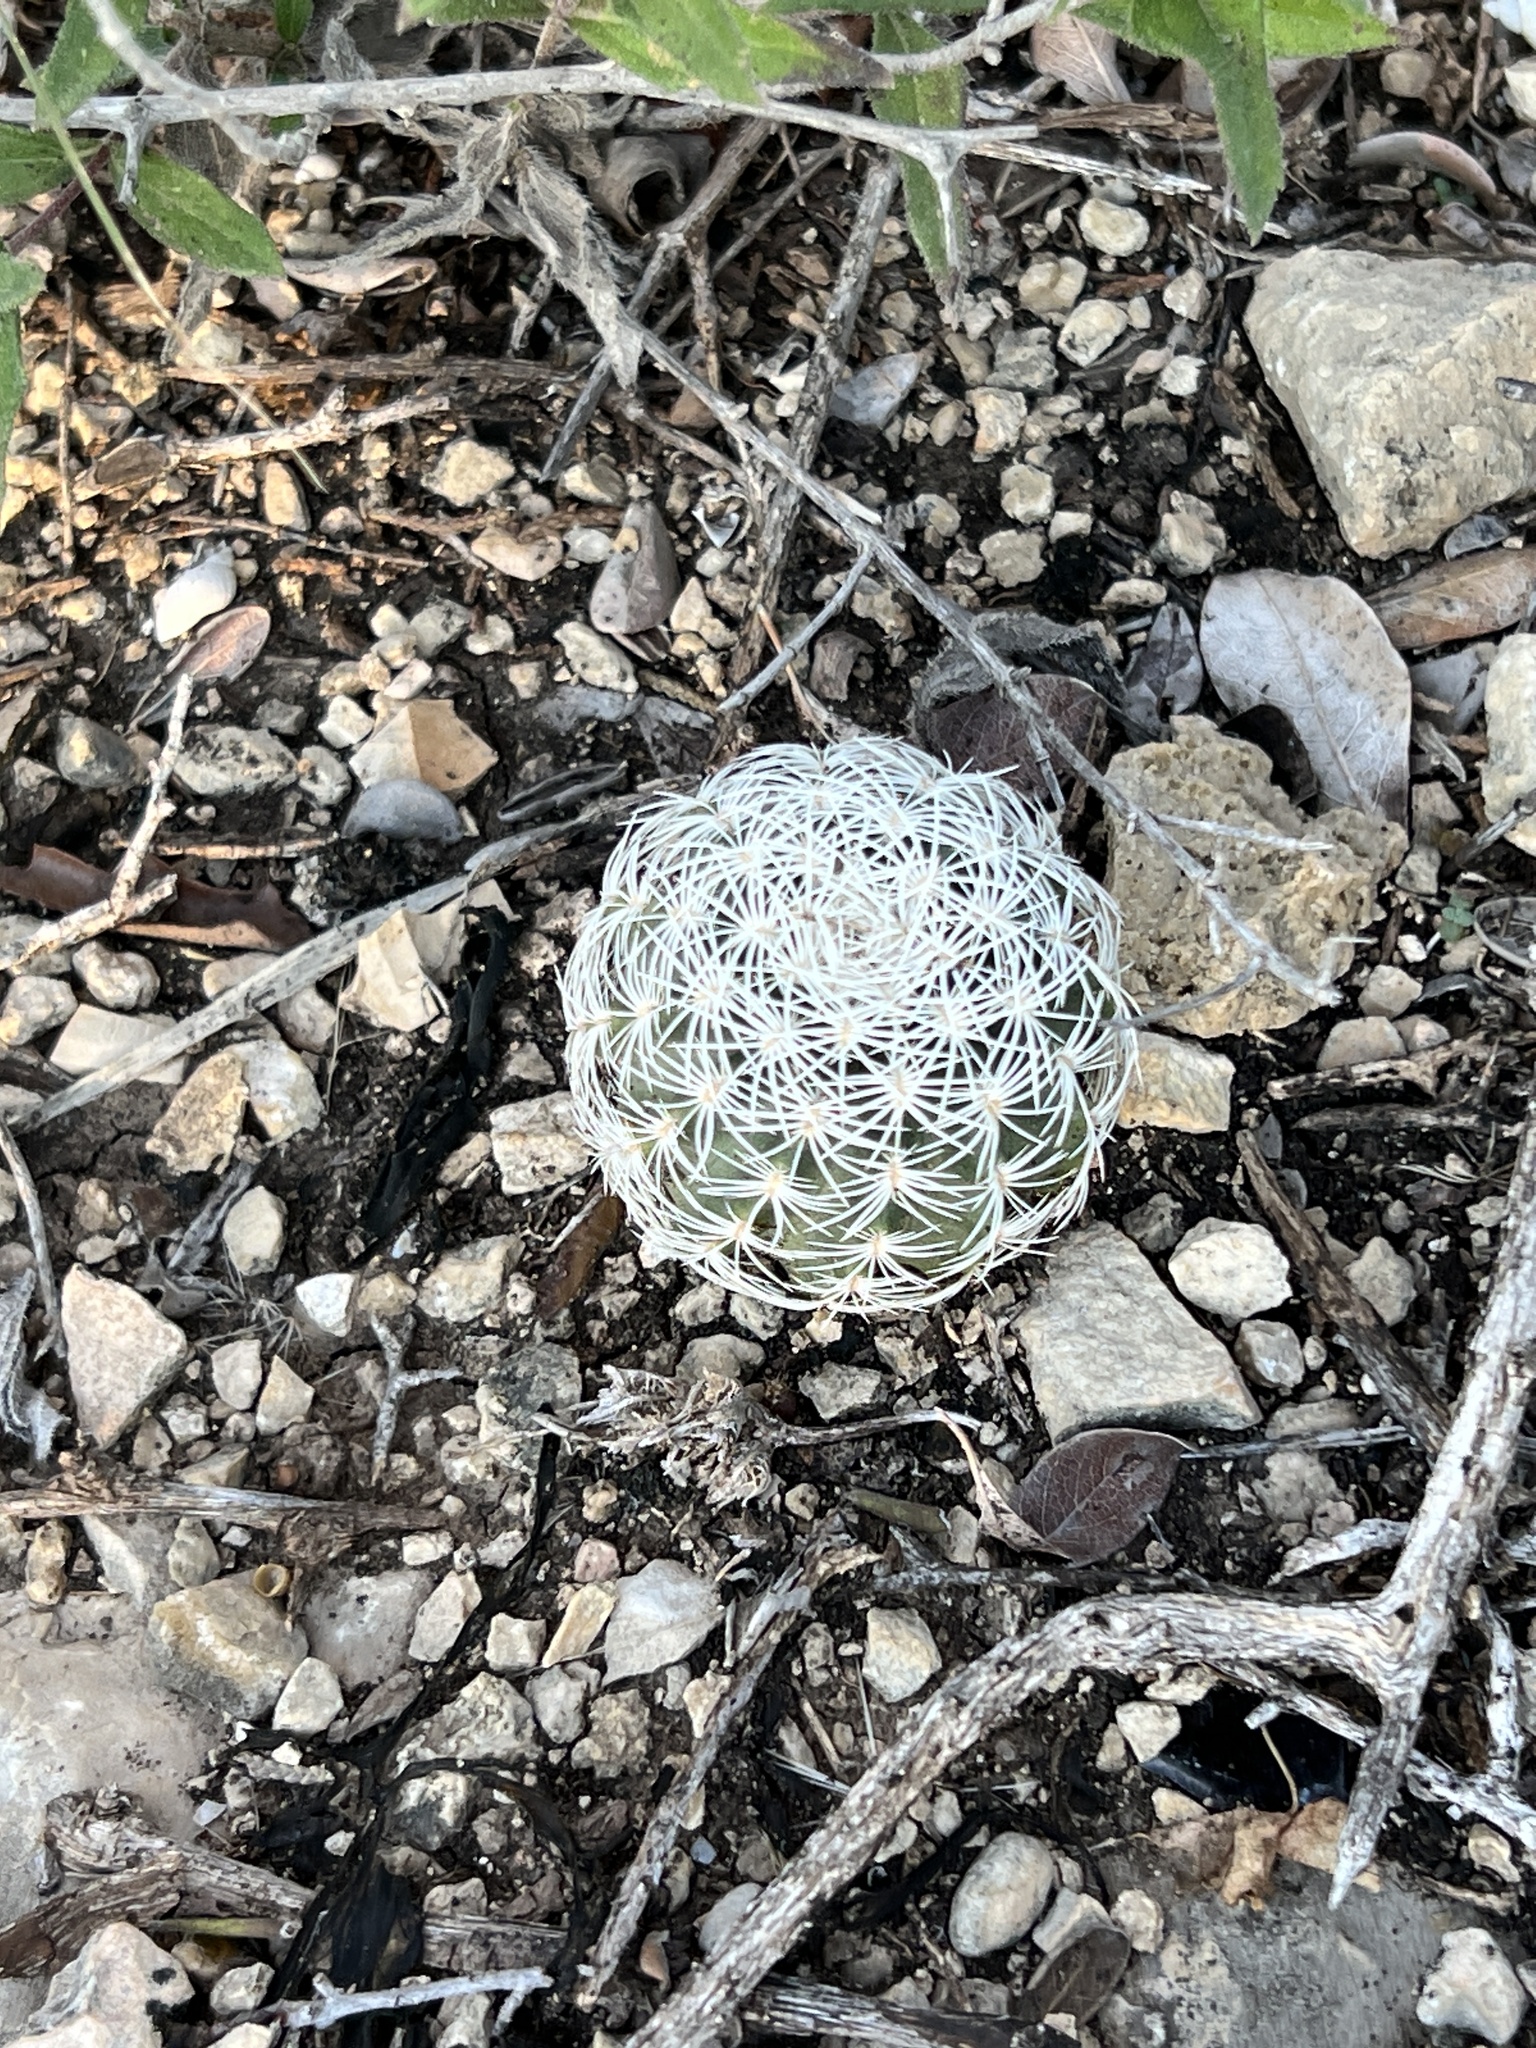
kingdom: Plantae
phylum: Tracheophyta
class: Magnoliopsida
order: Caryophyllales
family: Cactaceae
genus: Echinocereus
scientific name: Echinocereus reichenbachii
